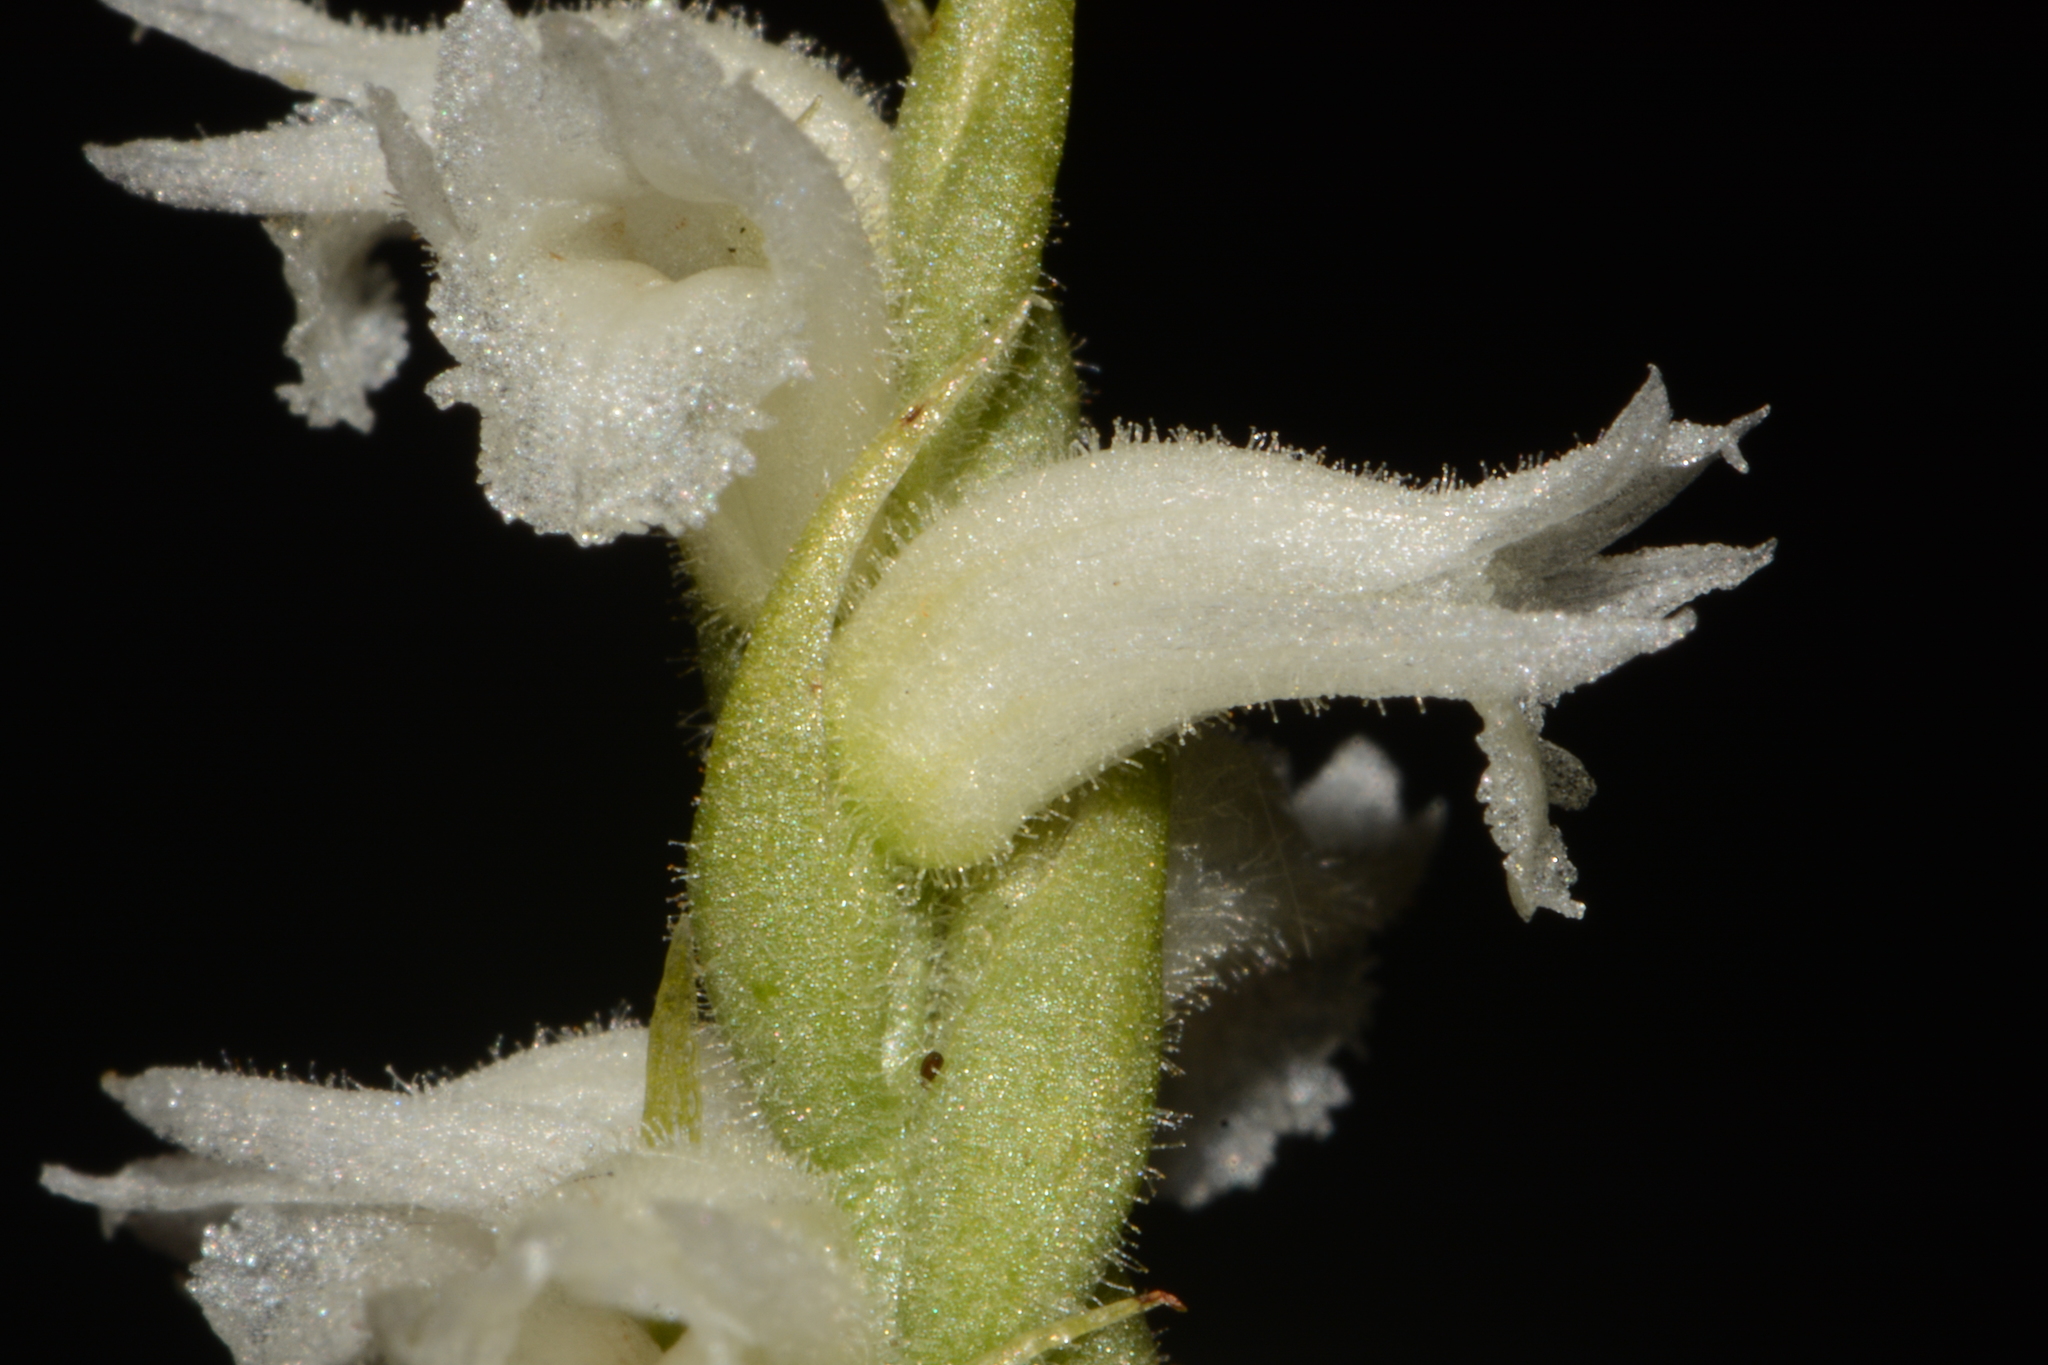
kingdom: Plantae
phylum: Tracheophyta
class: Liliopsida
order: Asparagales
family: Orchidaceae
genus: Spiranthes
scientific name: Spiranthes cernua
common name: Dropping ladies'-tresses
